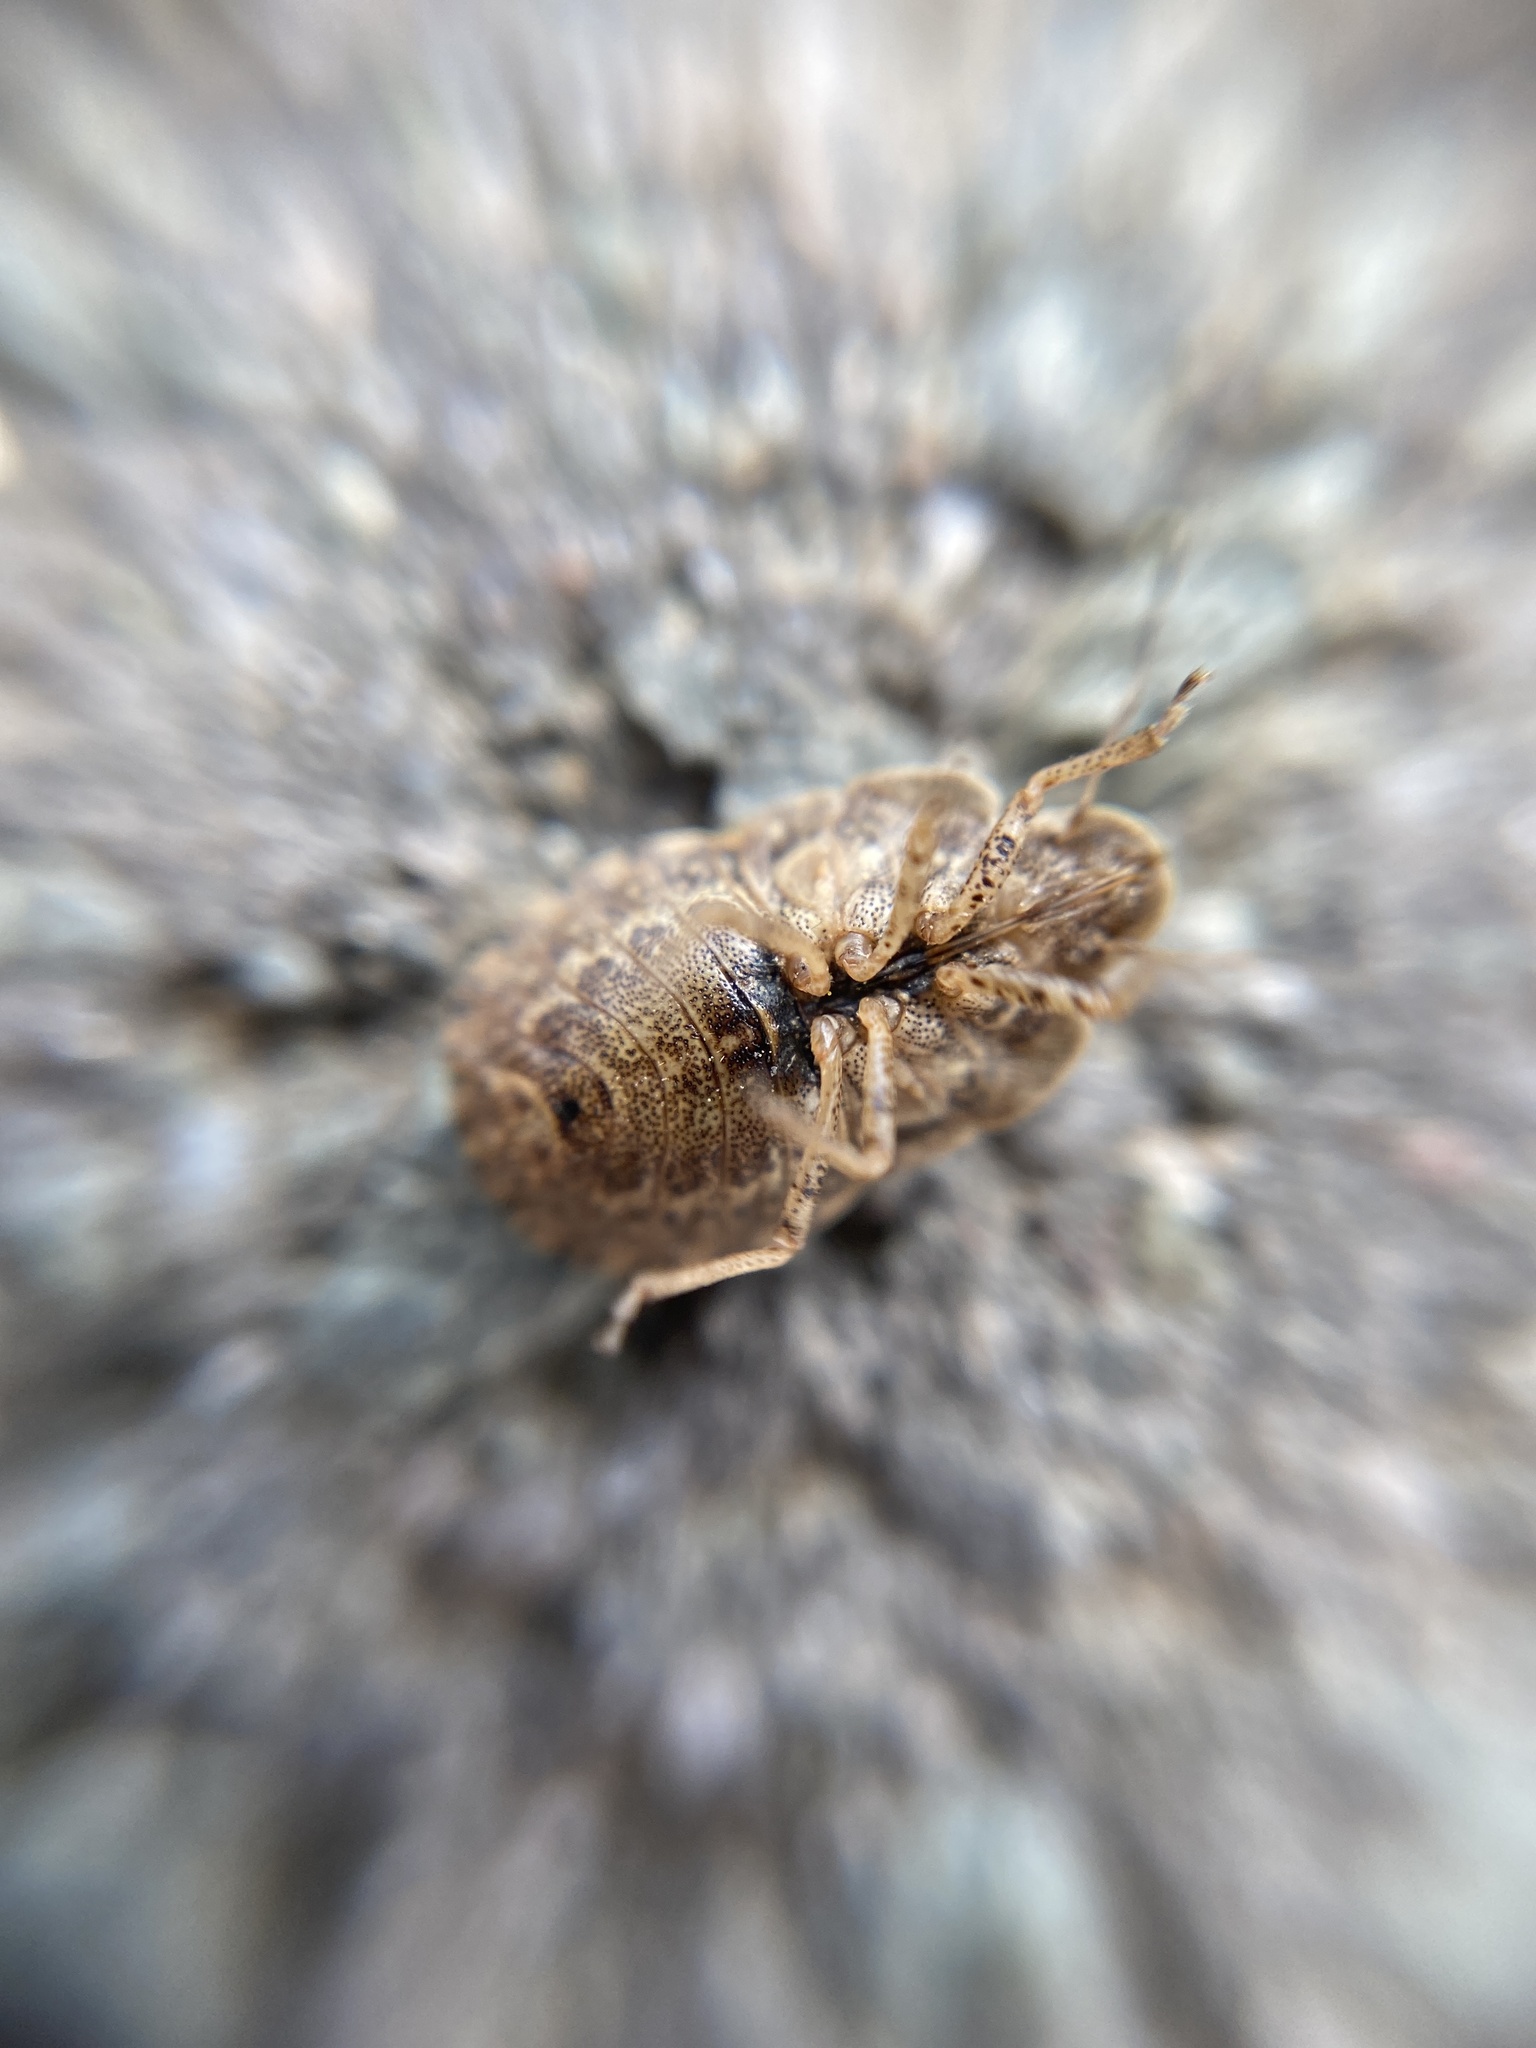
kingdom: Animalia
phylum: Arthropoda
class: Insecta
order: Hemiptera
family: Pentatomidae
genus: Sciocoris
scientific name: Sciocoris macrocephalus
